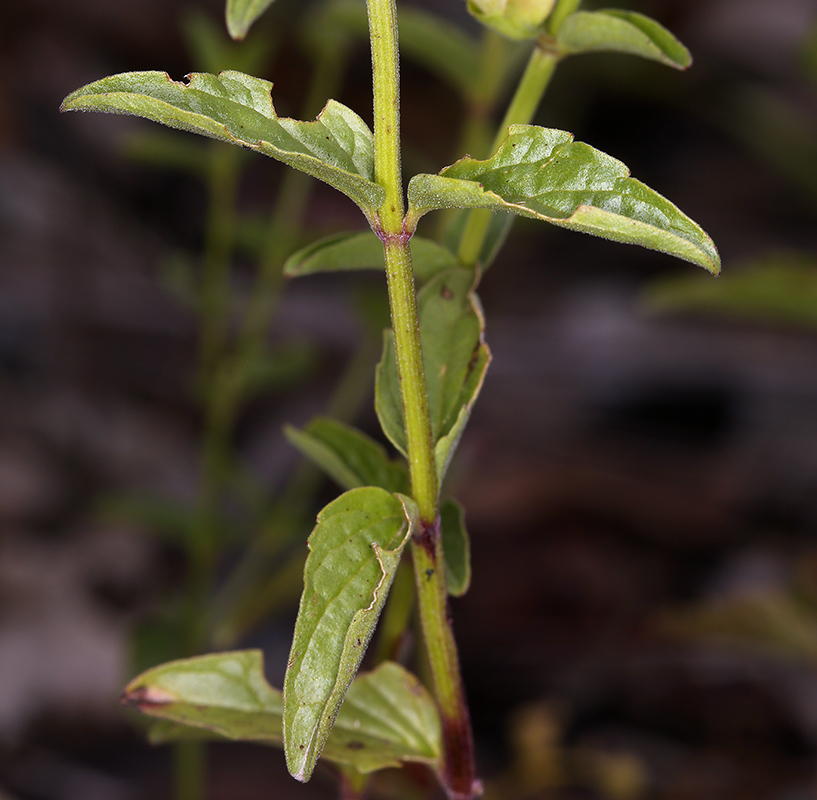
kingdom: Plantae
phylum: Tracheophyta
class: Magnoliopsida
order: Lamiales
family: Lamiaceae
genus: Scutellaria
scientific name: Scutellaria californica
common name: California scullcap
